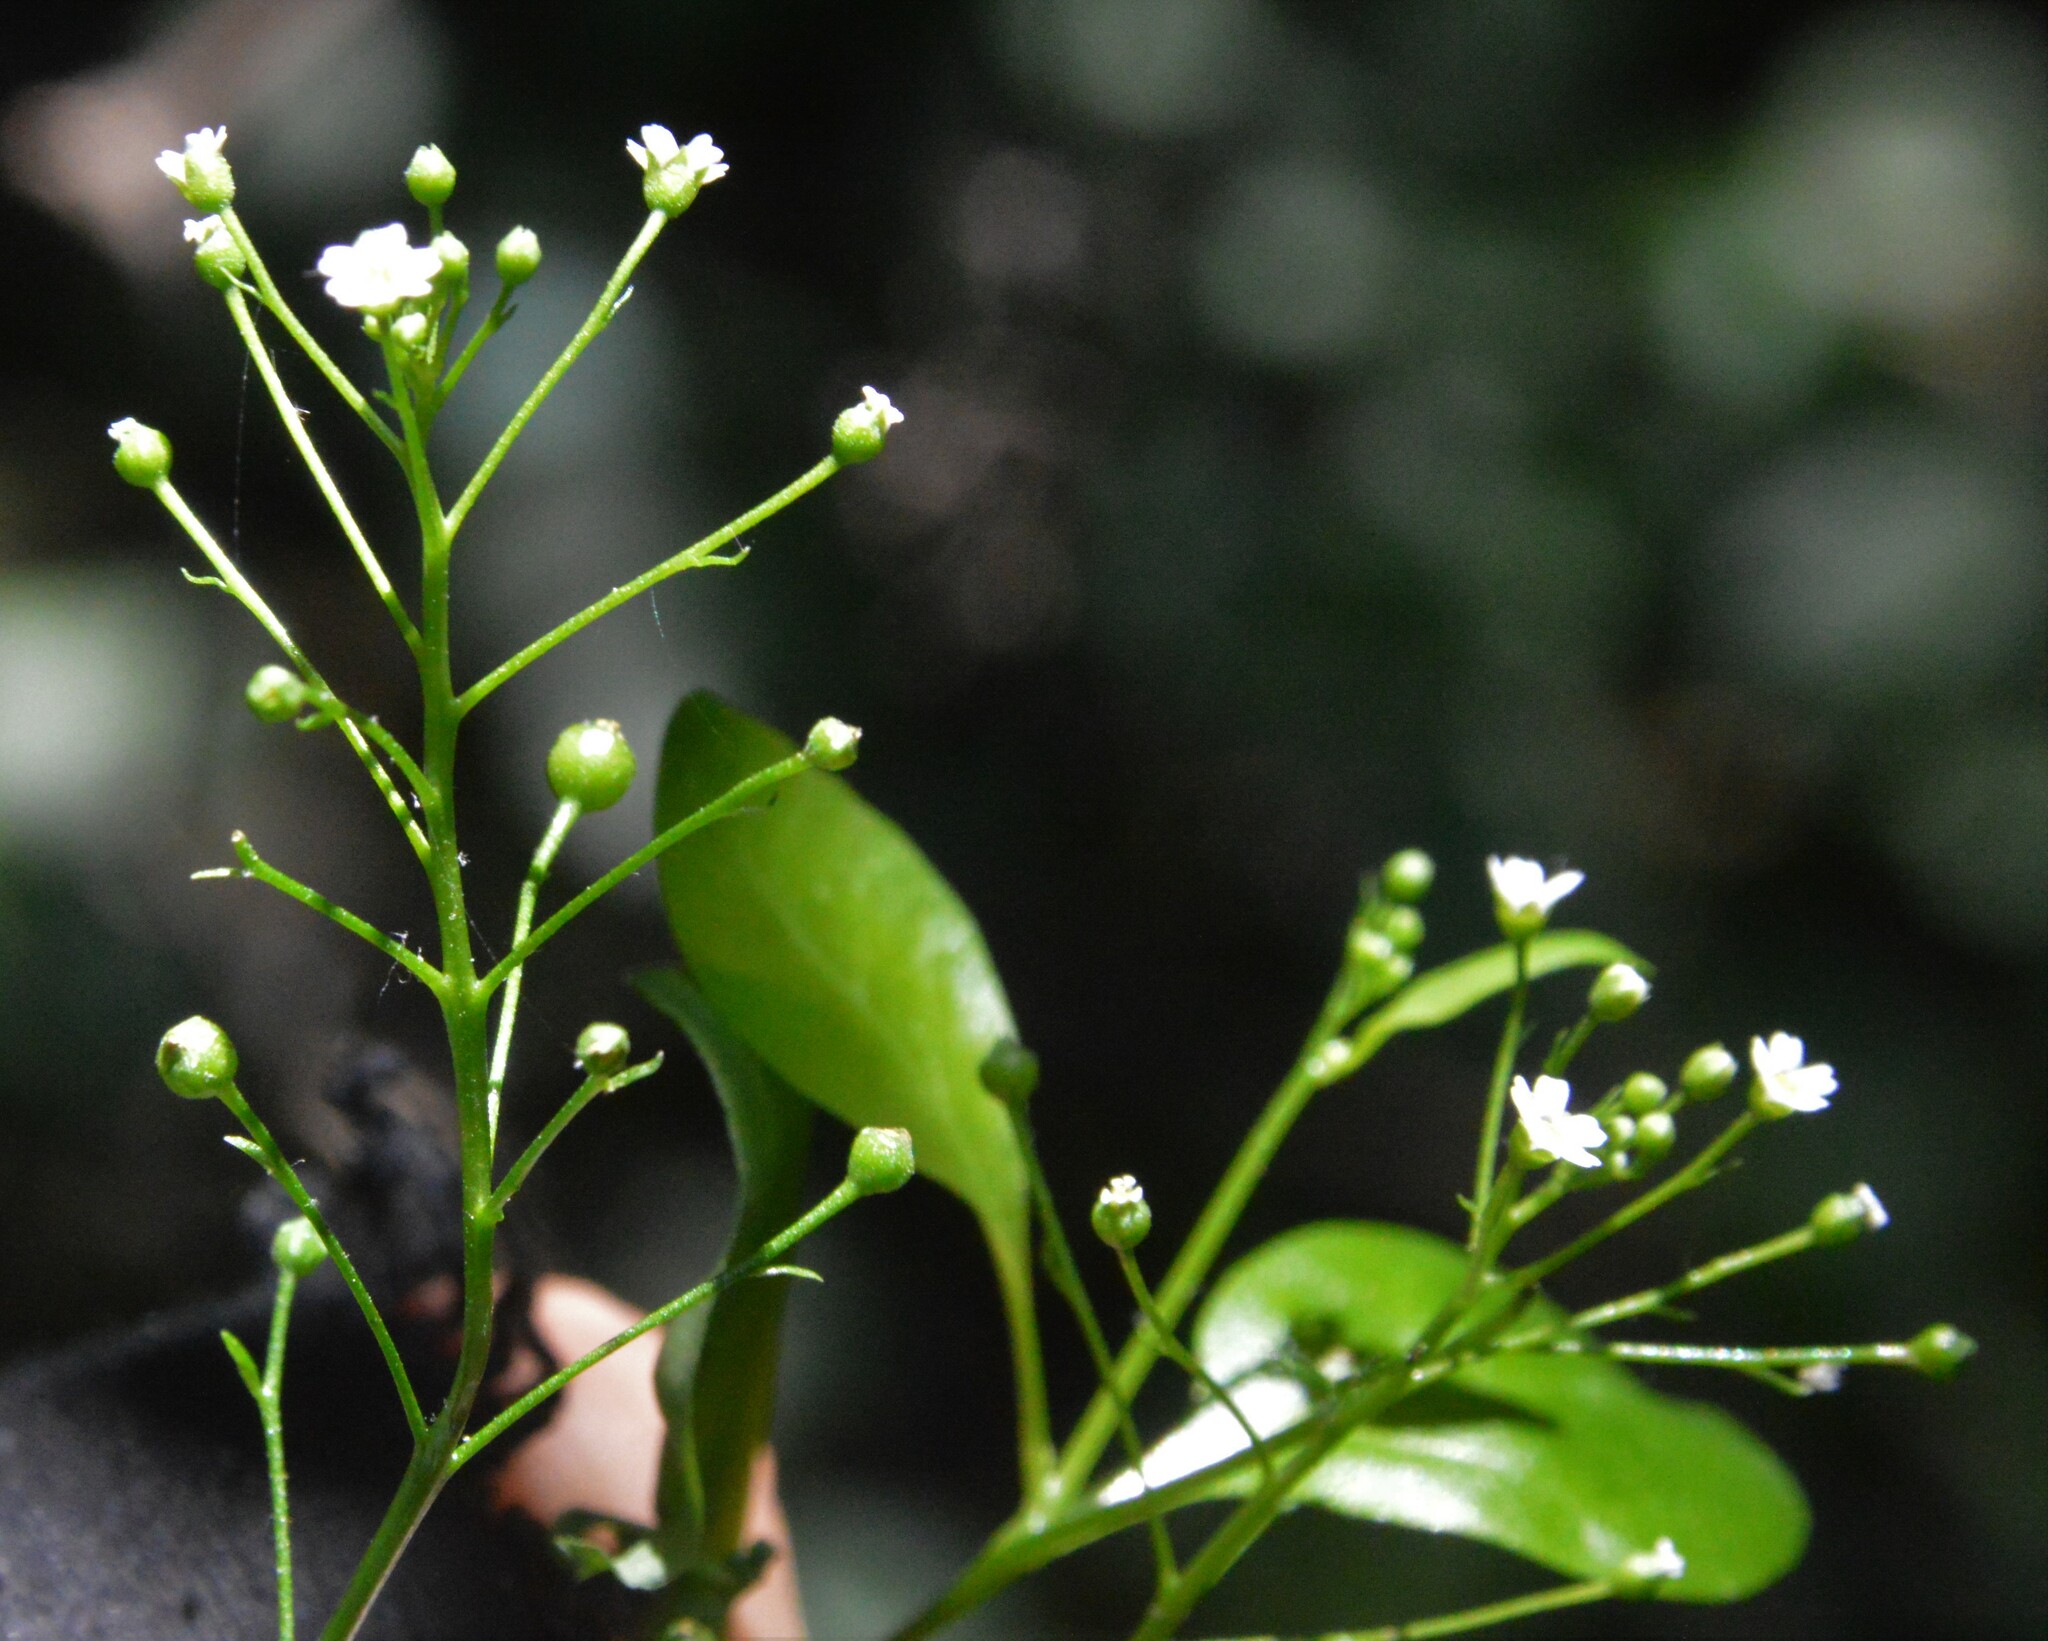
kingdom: Plantae
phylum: Tracheophyta
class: Magnoliopsida
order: Ericales
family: Primulaceae
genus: Samolus
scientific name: Samolus parviflorus
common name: False water pimpernel
